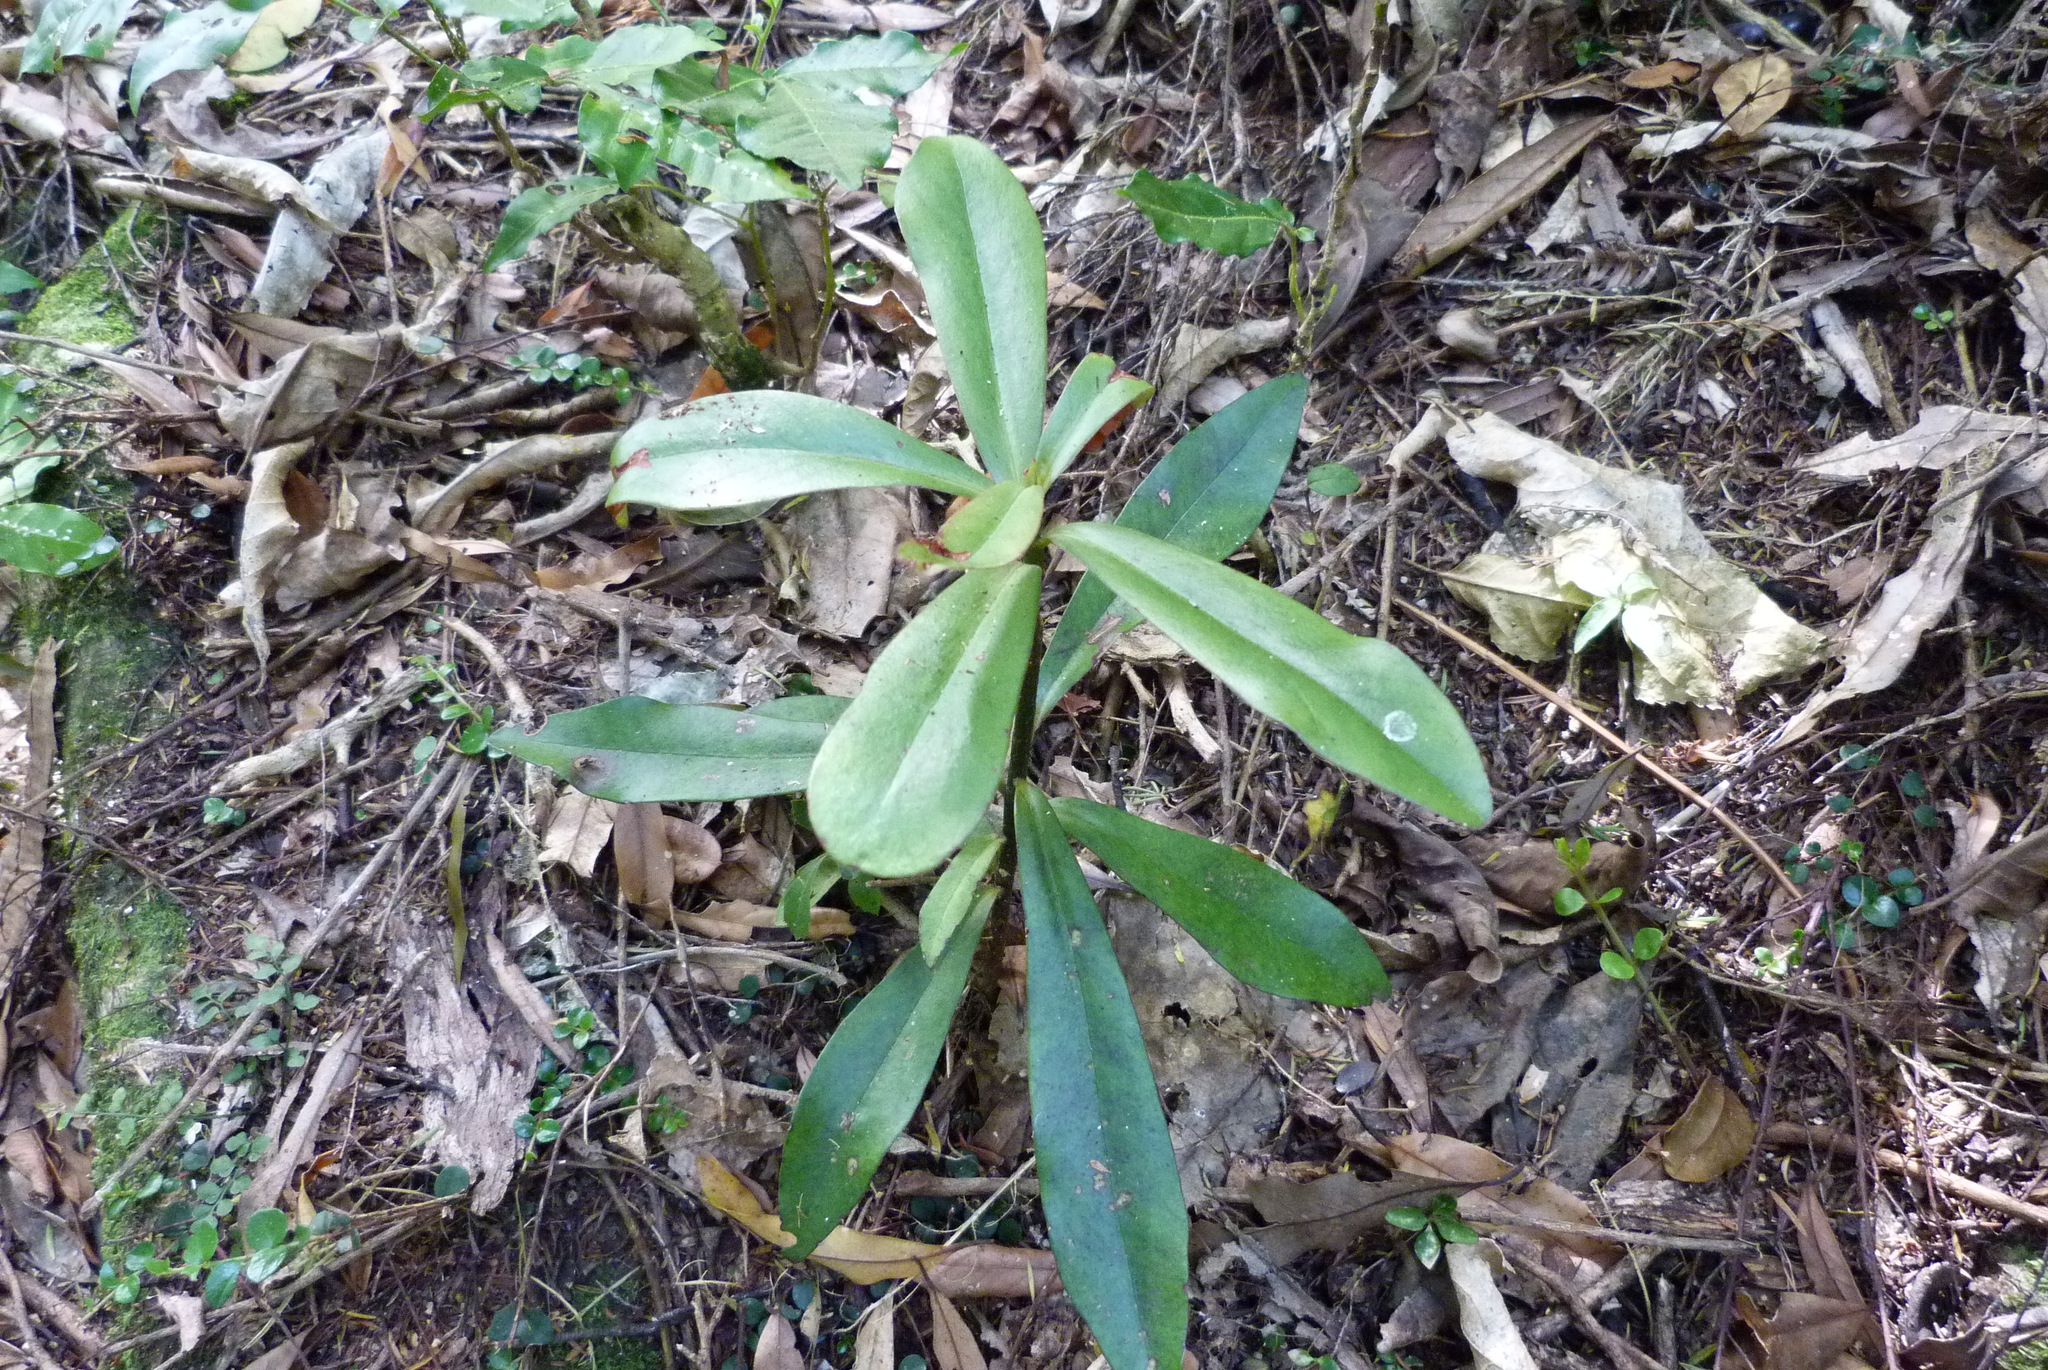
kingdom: Plantae
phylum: Tracheophyta
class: Magnoliopsida
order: Ericales
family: Primulaceae
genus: Myrsine
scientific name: Myrsine salicina
